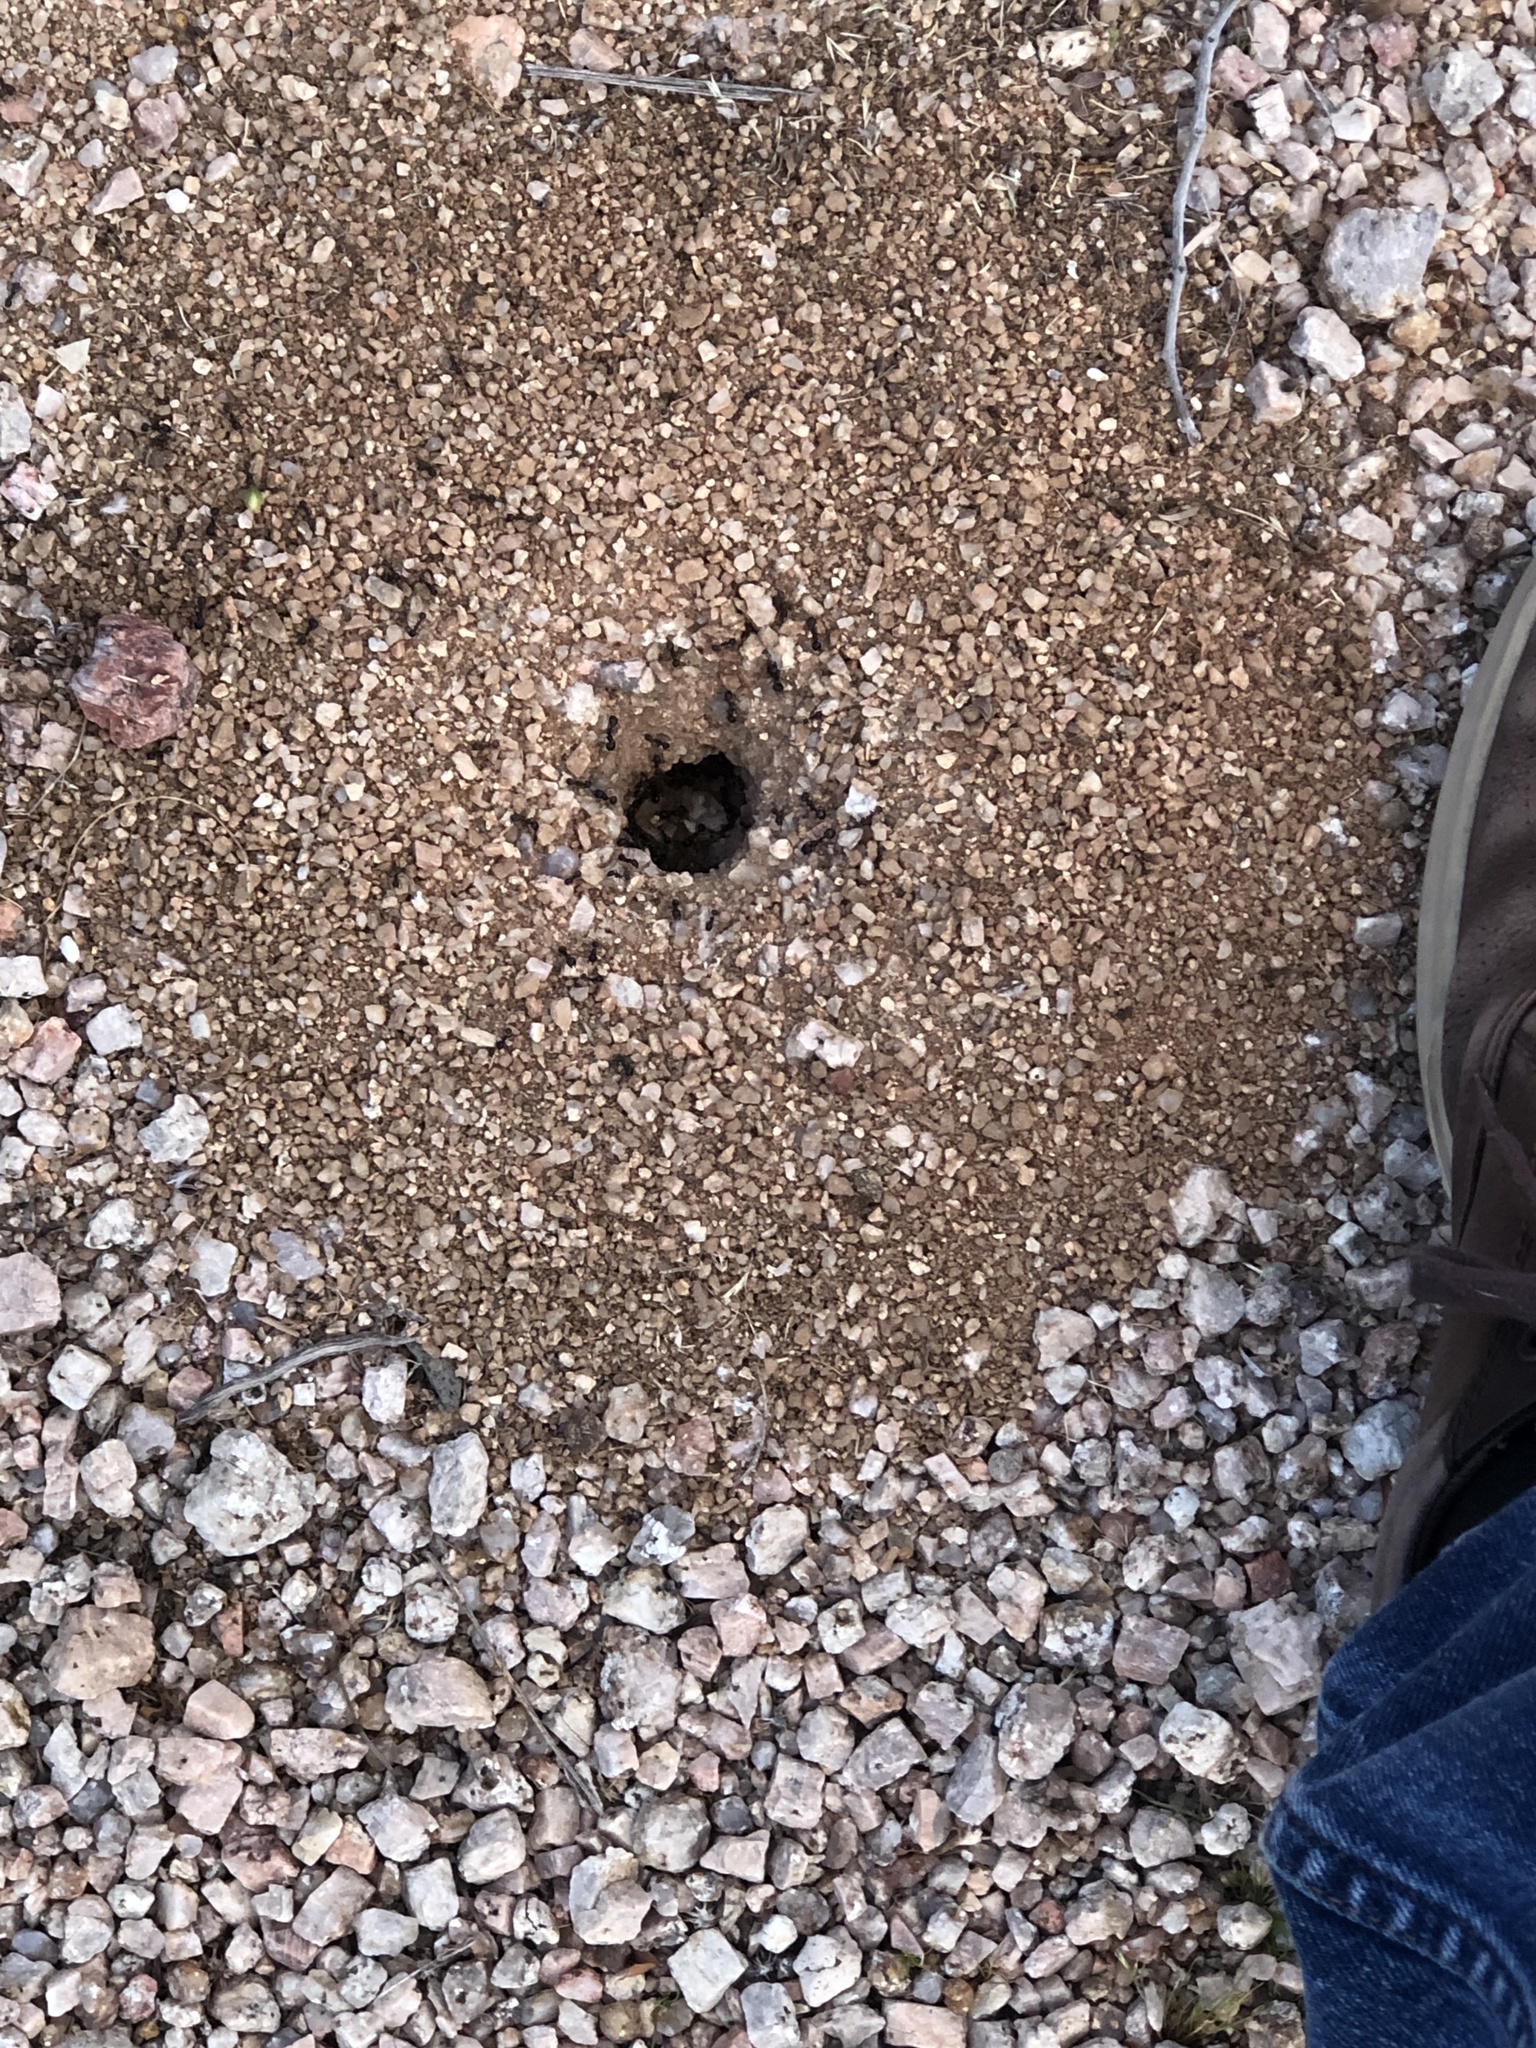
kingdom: Animalia
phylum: Arthropoda
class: Insecta
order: Hymenoptera
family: Formicidae
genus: Messor
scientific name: Messor pergandei
